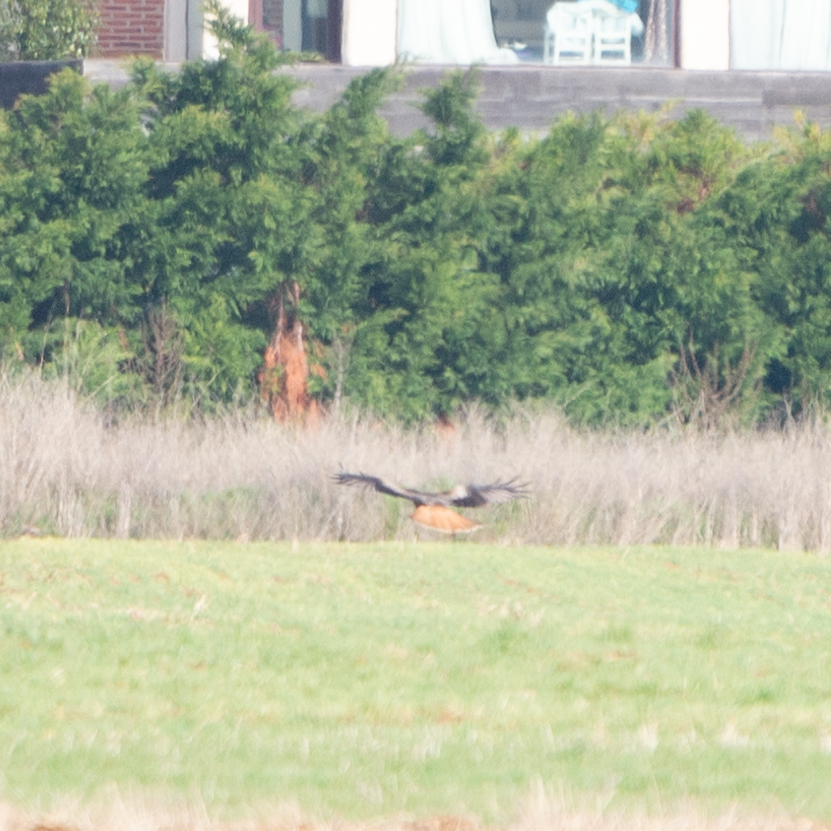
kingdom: Animalia
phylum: Chordata
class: Aves
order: Accipitriformes
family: Accipitridae
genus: Milvus
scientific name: Milvus milvus
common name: Red kite
